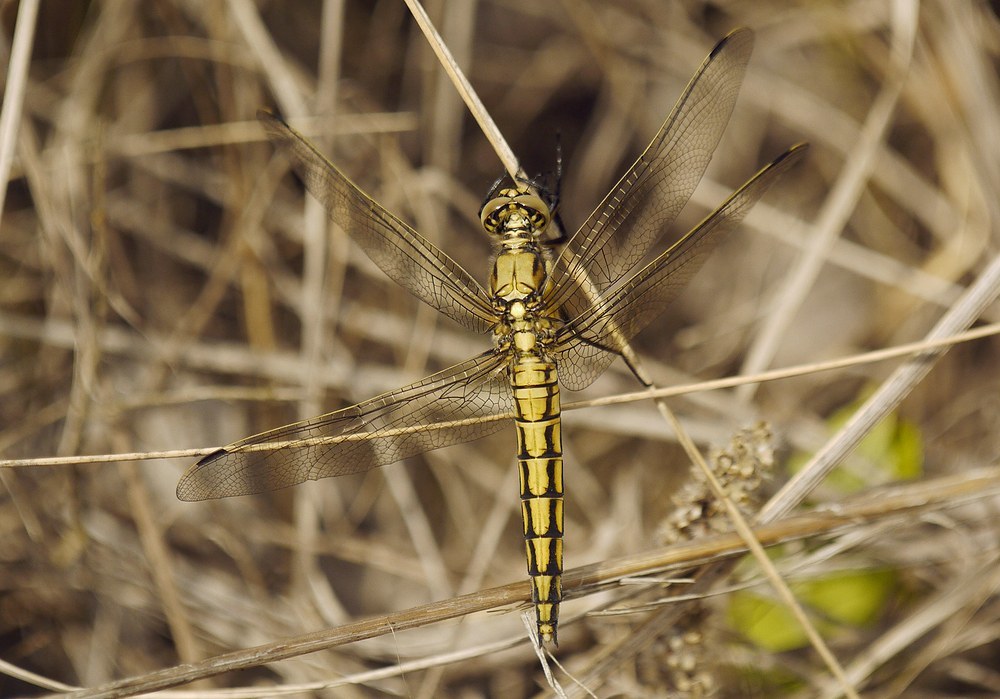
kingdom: Animalia
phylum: Arthropoda
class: Insecta
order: Odonata
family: Libellulidae
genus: Orthetrum
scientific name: Orthetrum cancellatum
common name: Black-tailed skimmer
